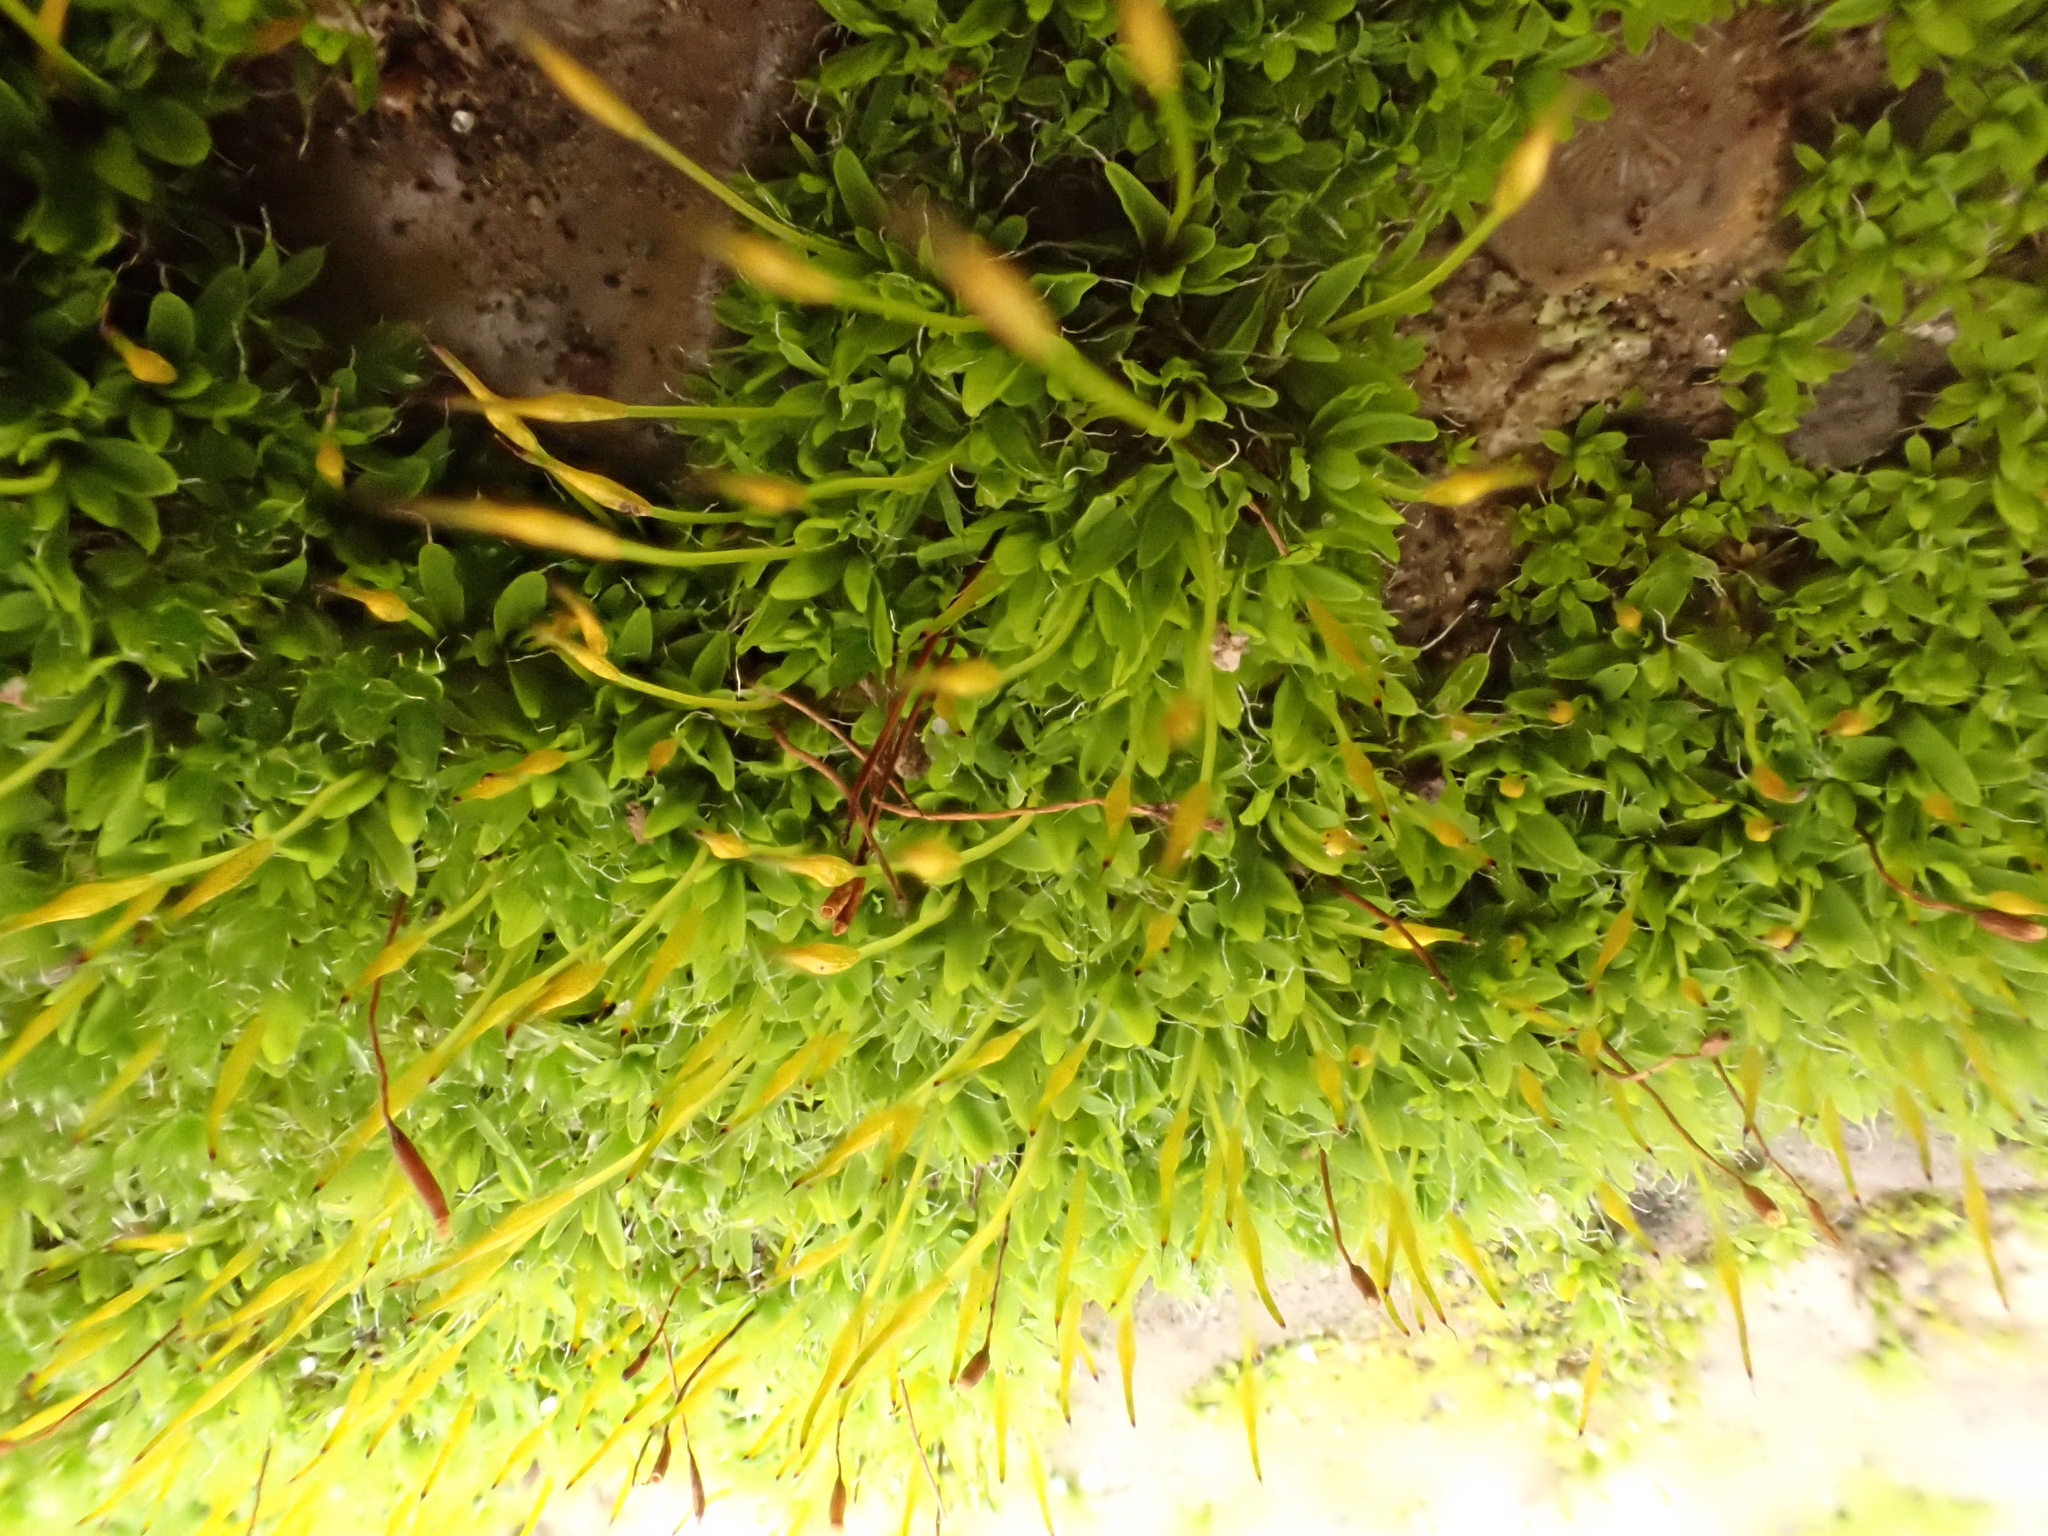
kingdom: Plantae
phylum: Bryophyta
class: Bryopsida
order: Pottiales
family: Pottiaceae
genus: Tortula
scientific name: Tortula muralis
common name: Wall screw-moss
